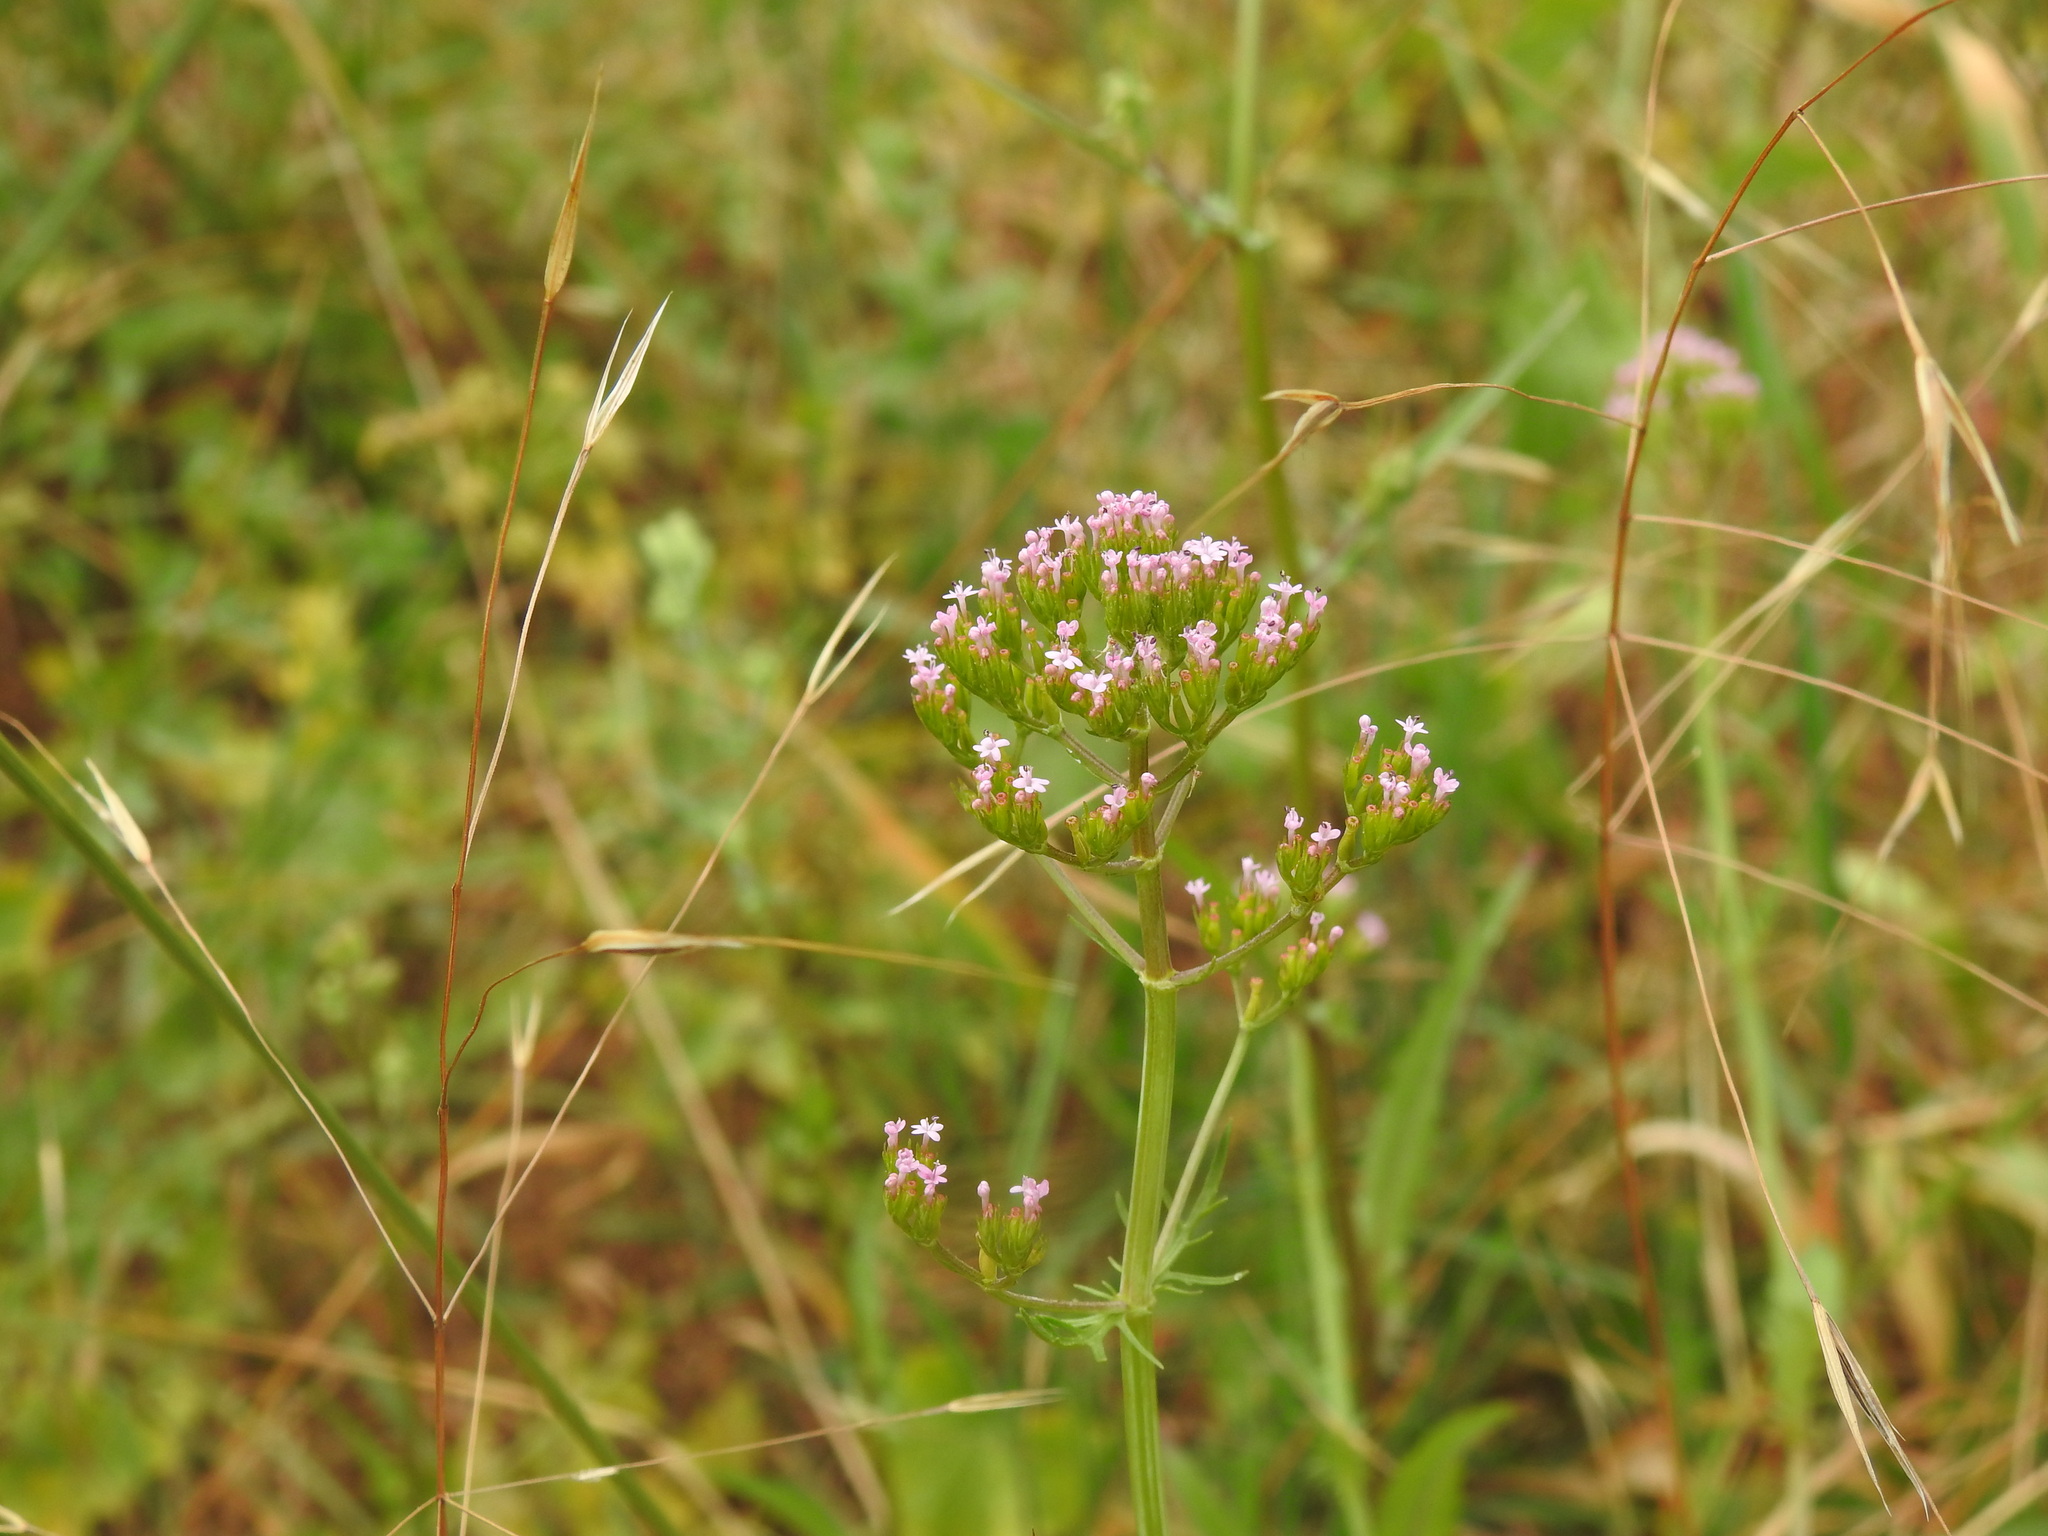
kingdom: Plantae
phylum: Tracheophyta
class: Magnoliopsida
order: Dipsacales
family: Caprifoliaceae
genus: Centranthus
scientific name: Centranthus calcitrapae
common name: Annual valerian
